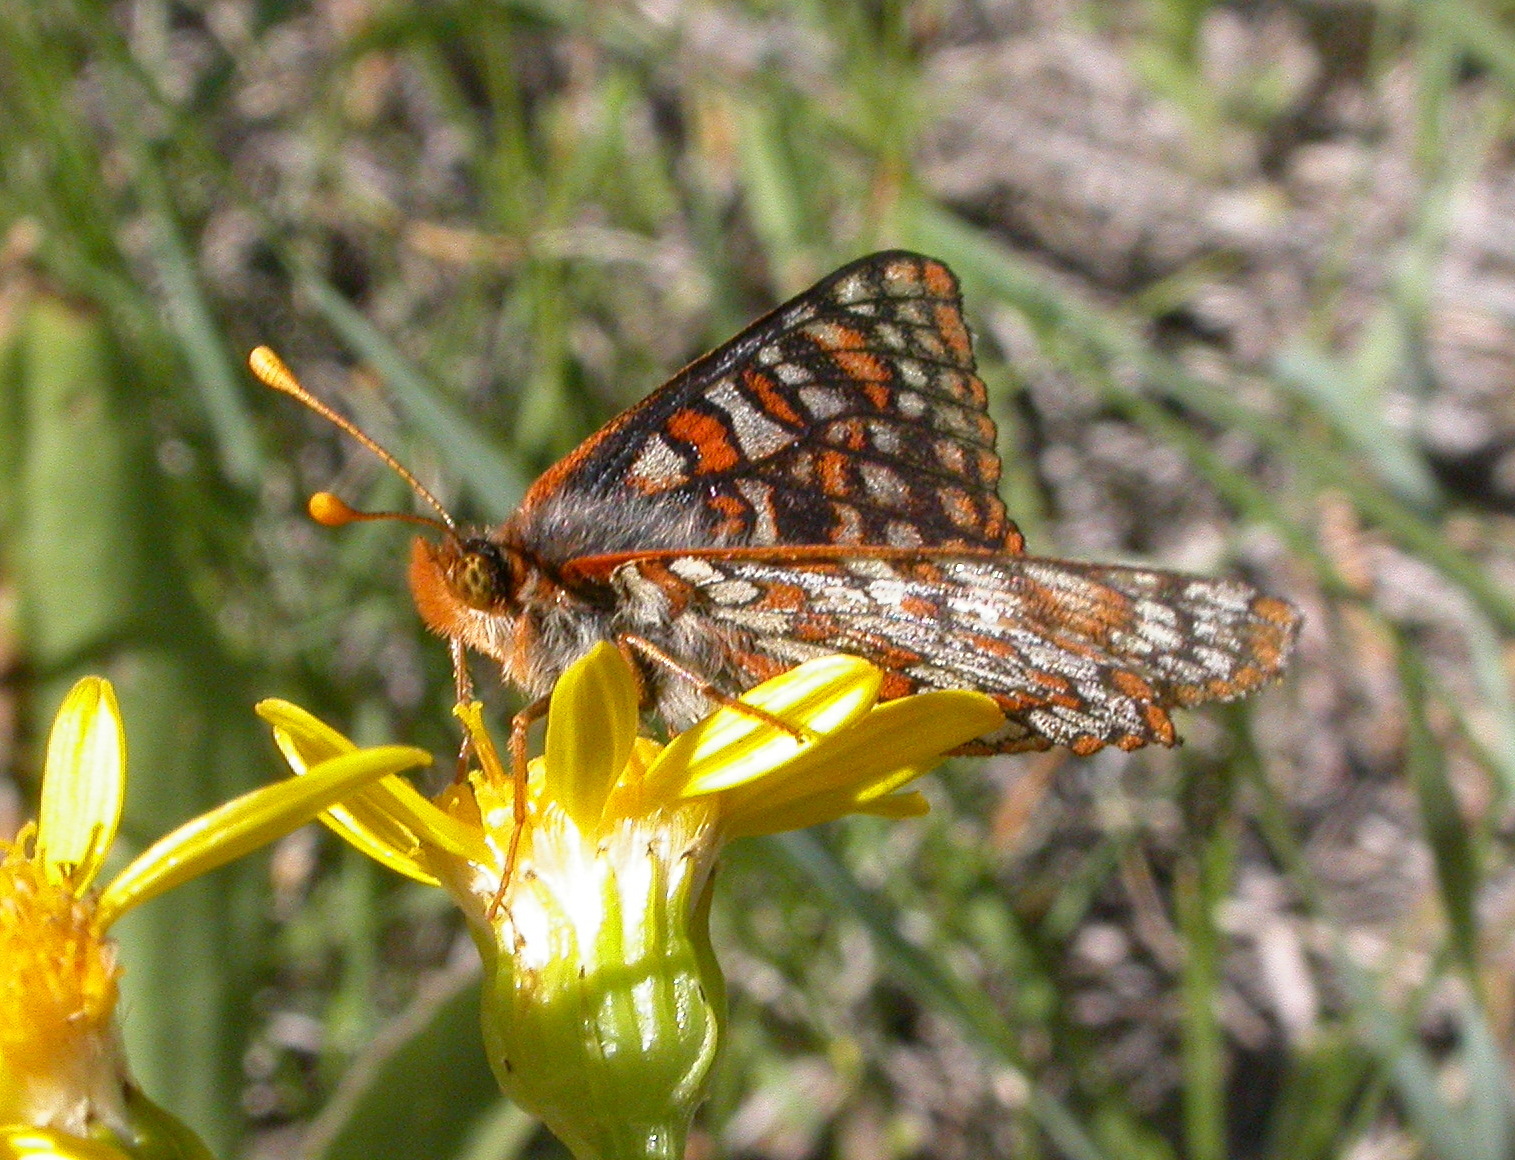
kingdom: Animalia
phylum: Arthropoda
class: Insecta
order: Lepidoptera
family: Nymphalidae
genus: Occidryas
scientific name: Occidryas anicia
